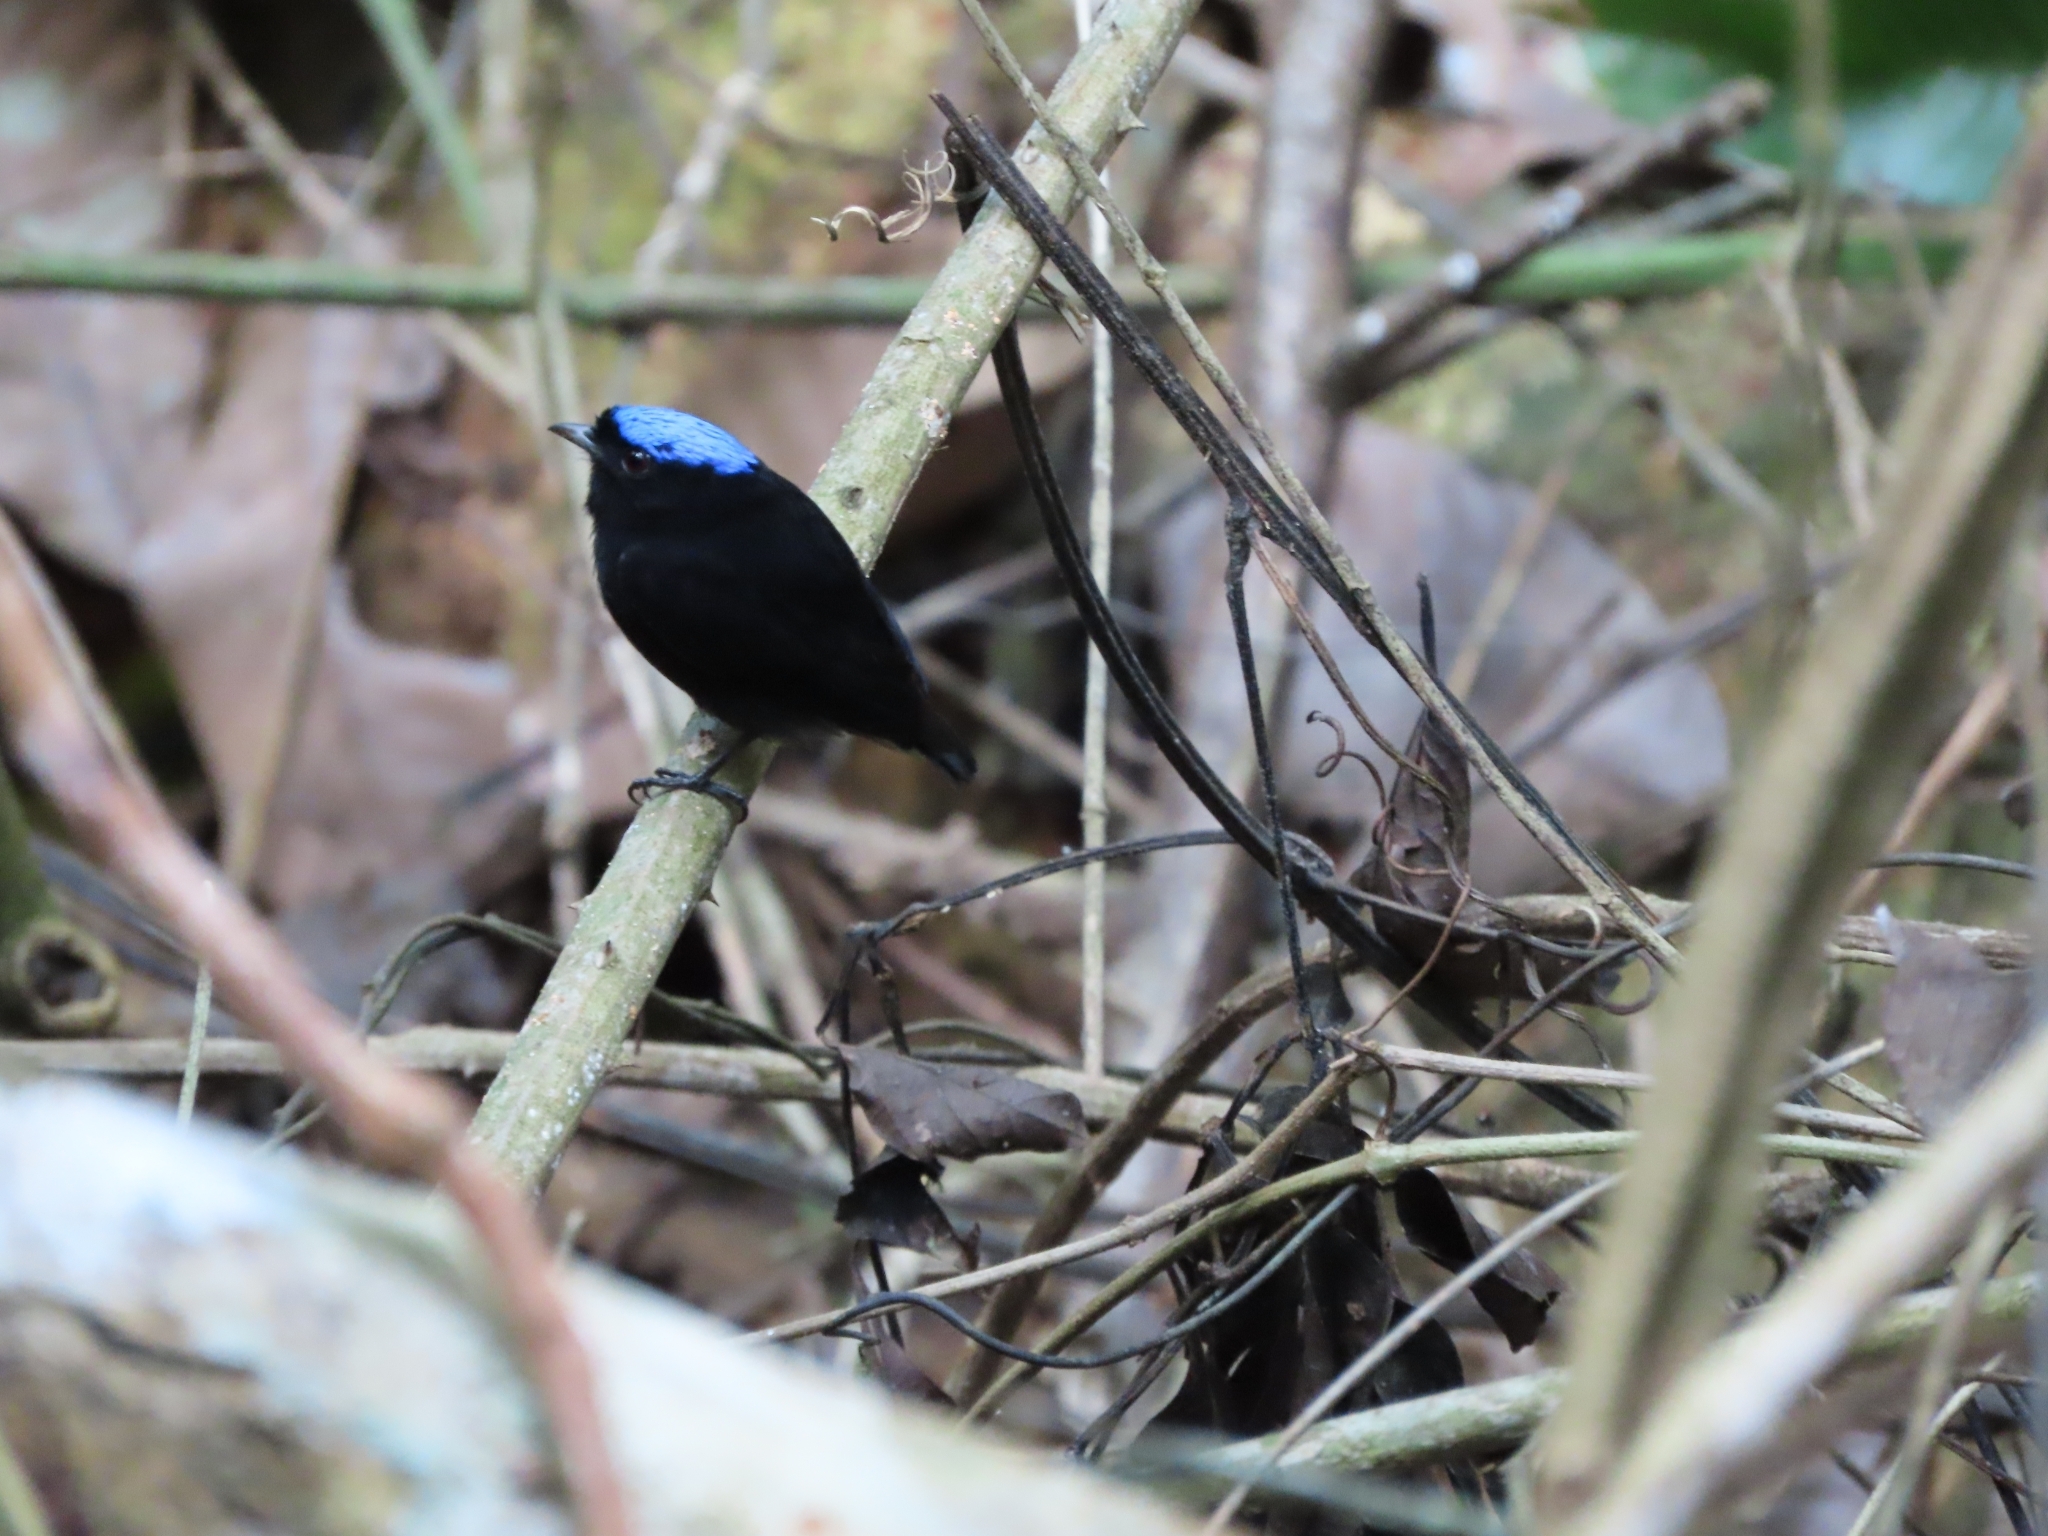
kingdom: Animalia
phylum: Chordata
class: Aves
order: Passeriformes
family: Pipridae
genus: Lepidothrix
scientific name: Lepidothrix coronata
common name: Blue-crowned manakin
